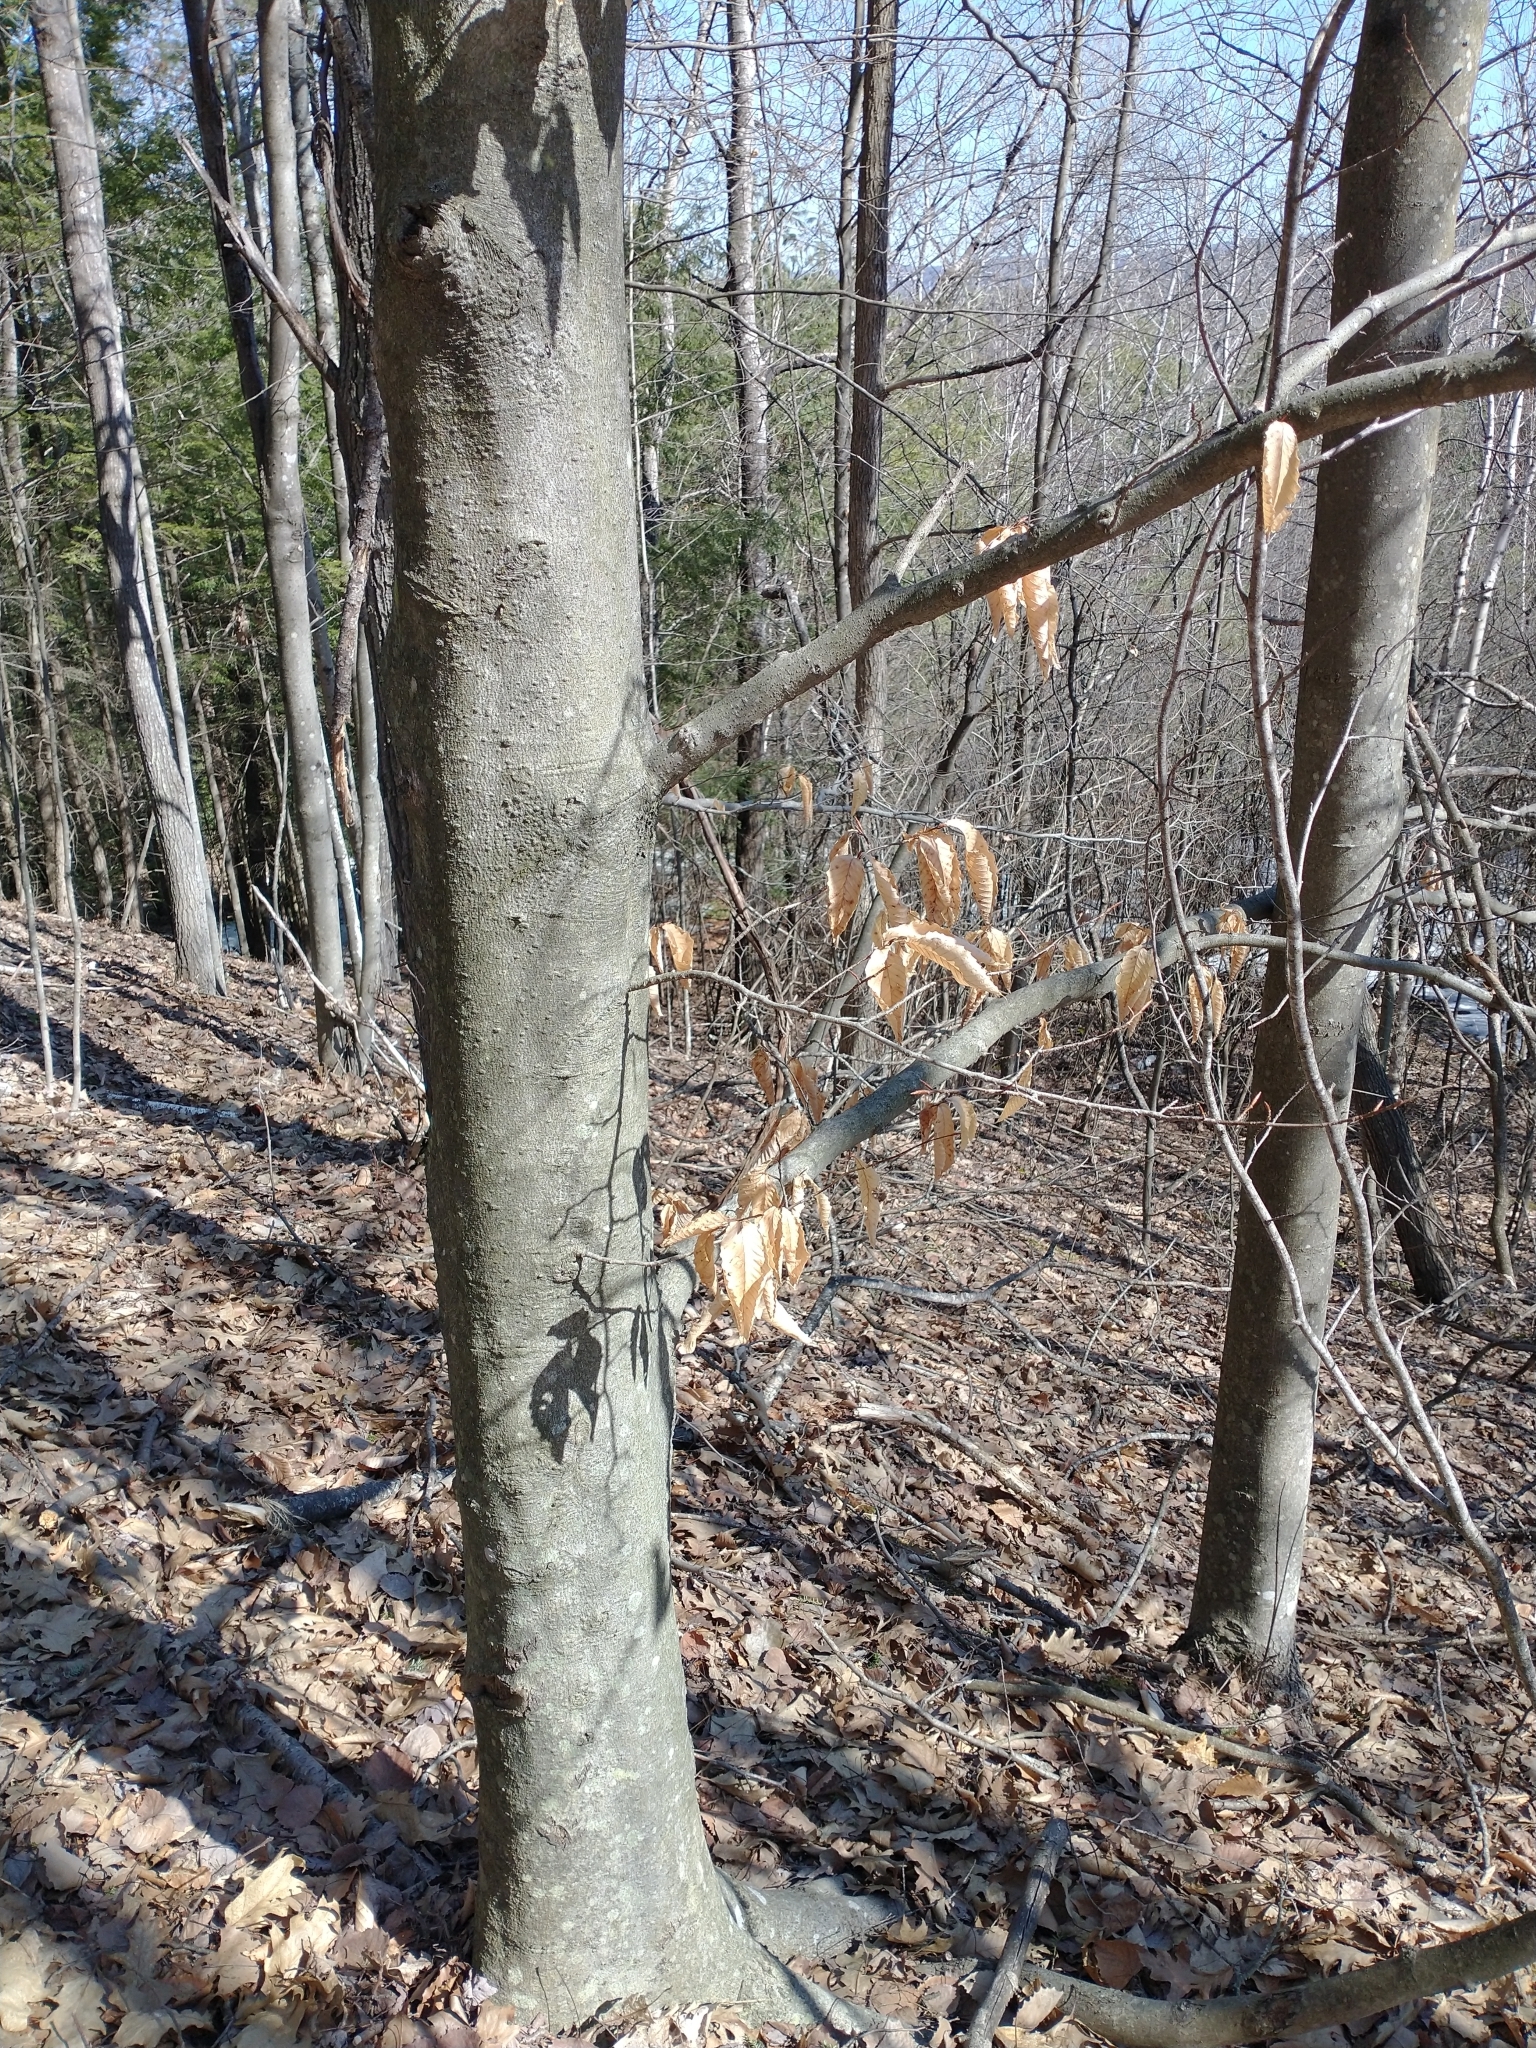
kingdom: Plantae
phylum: Tracheophyta
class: Magnoliopsida
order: Fagales
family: Fagaceae
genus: Fagus
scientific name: Fagus grandifolia
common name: American beech
